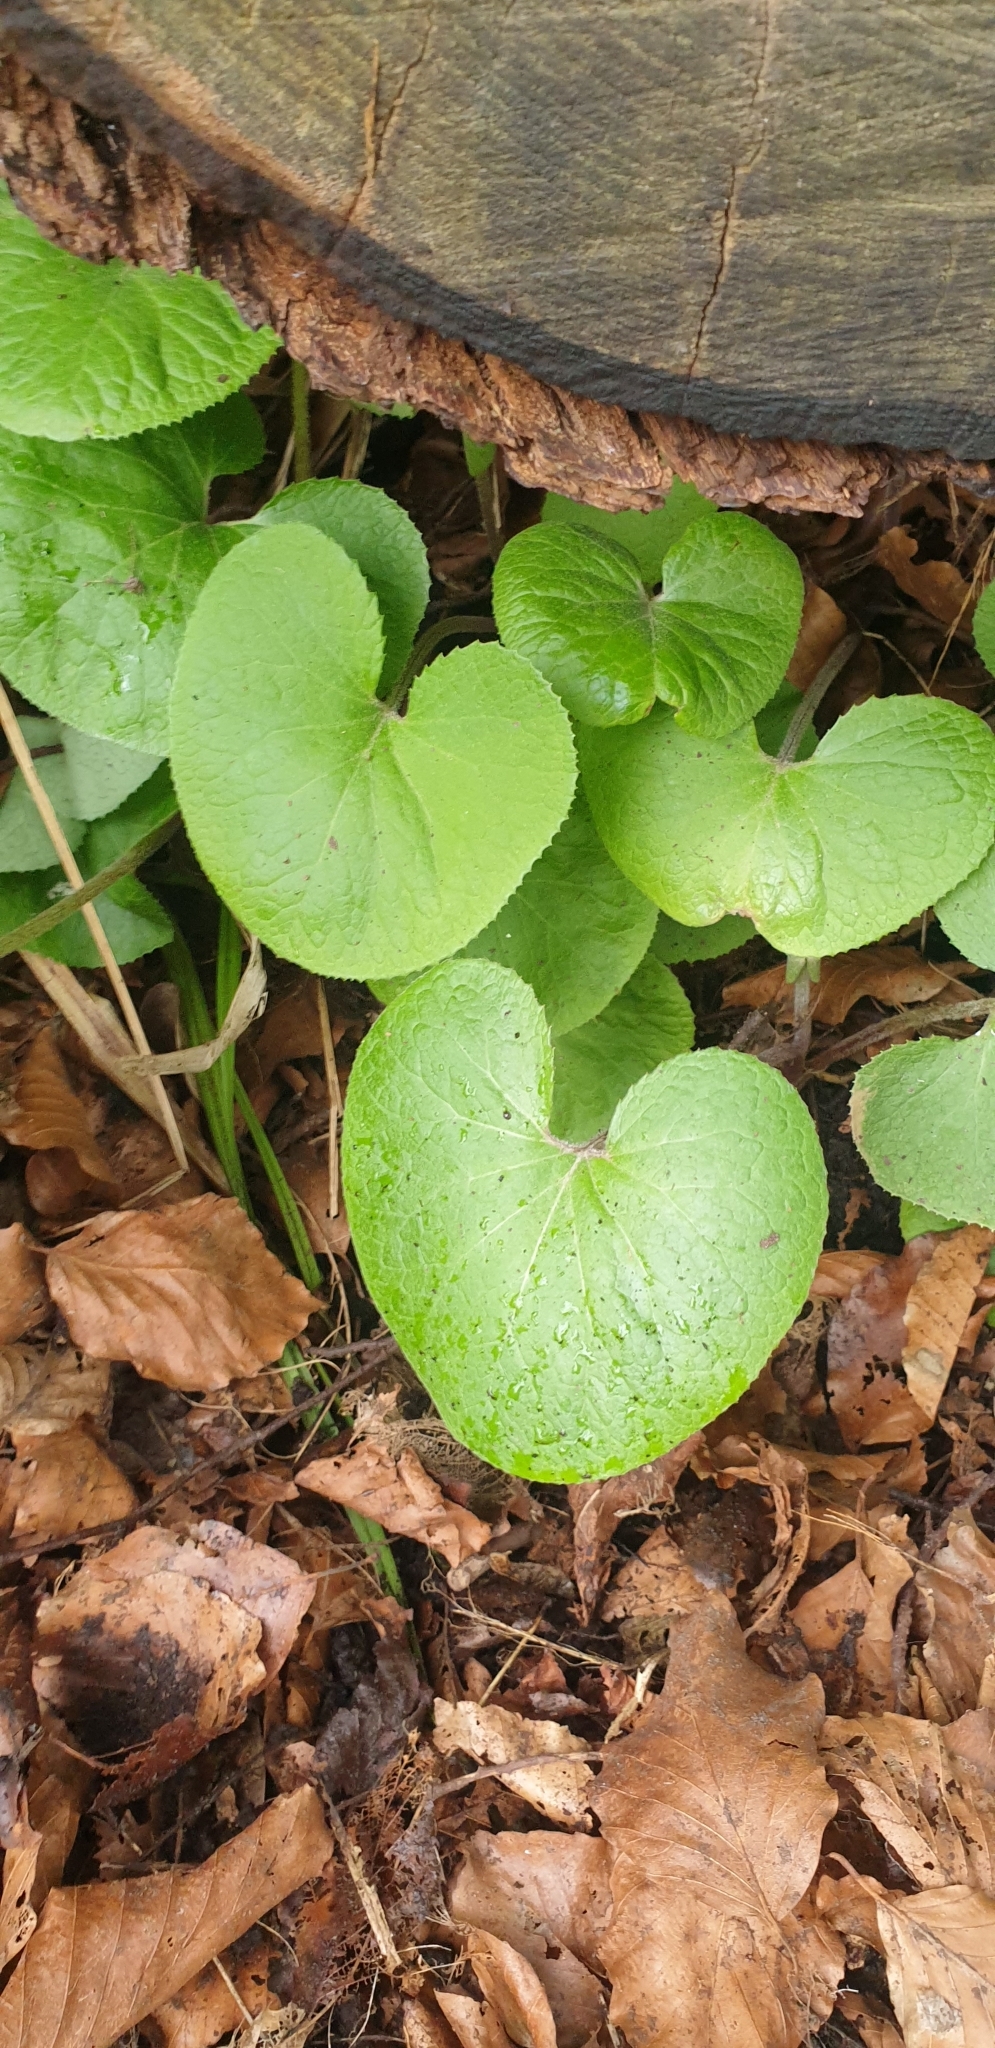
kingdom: Plantae
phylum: Tracheophyta
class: Magnoliopsida
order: Asterales
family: Asteraceae
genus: Petasites
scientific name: Petasites pyrenaicus
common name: Winter heliotrope
